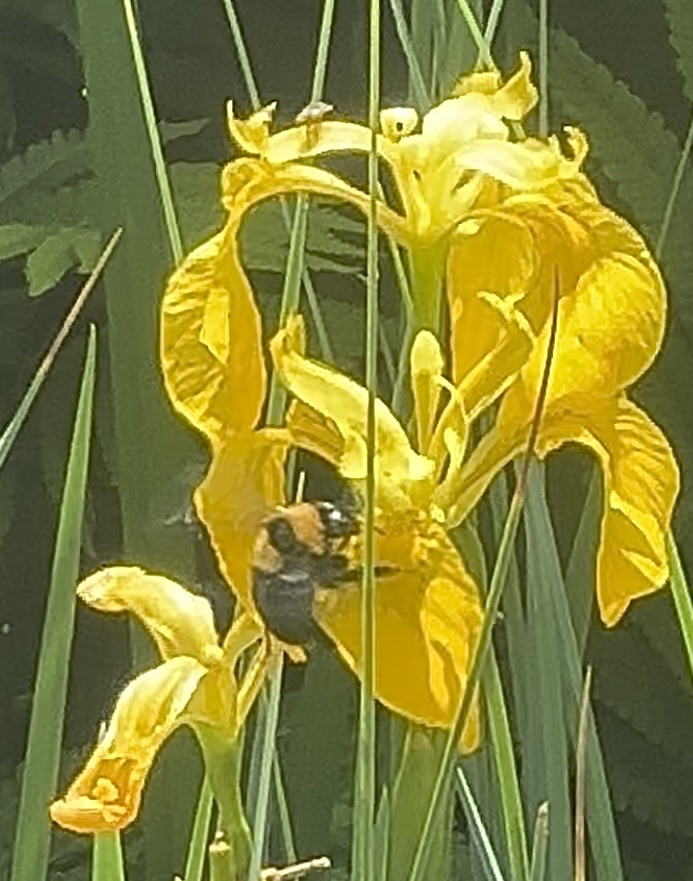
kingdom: Animalia
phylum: Arthropoda
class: Insecta
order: Hymenoptera
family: Apidae
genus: Bombus
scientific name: Bombus argillaceus
